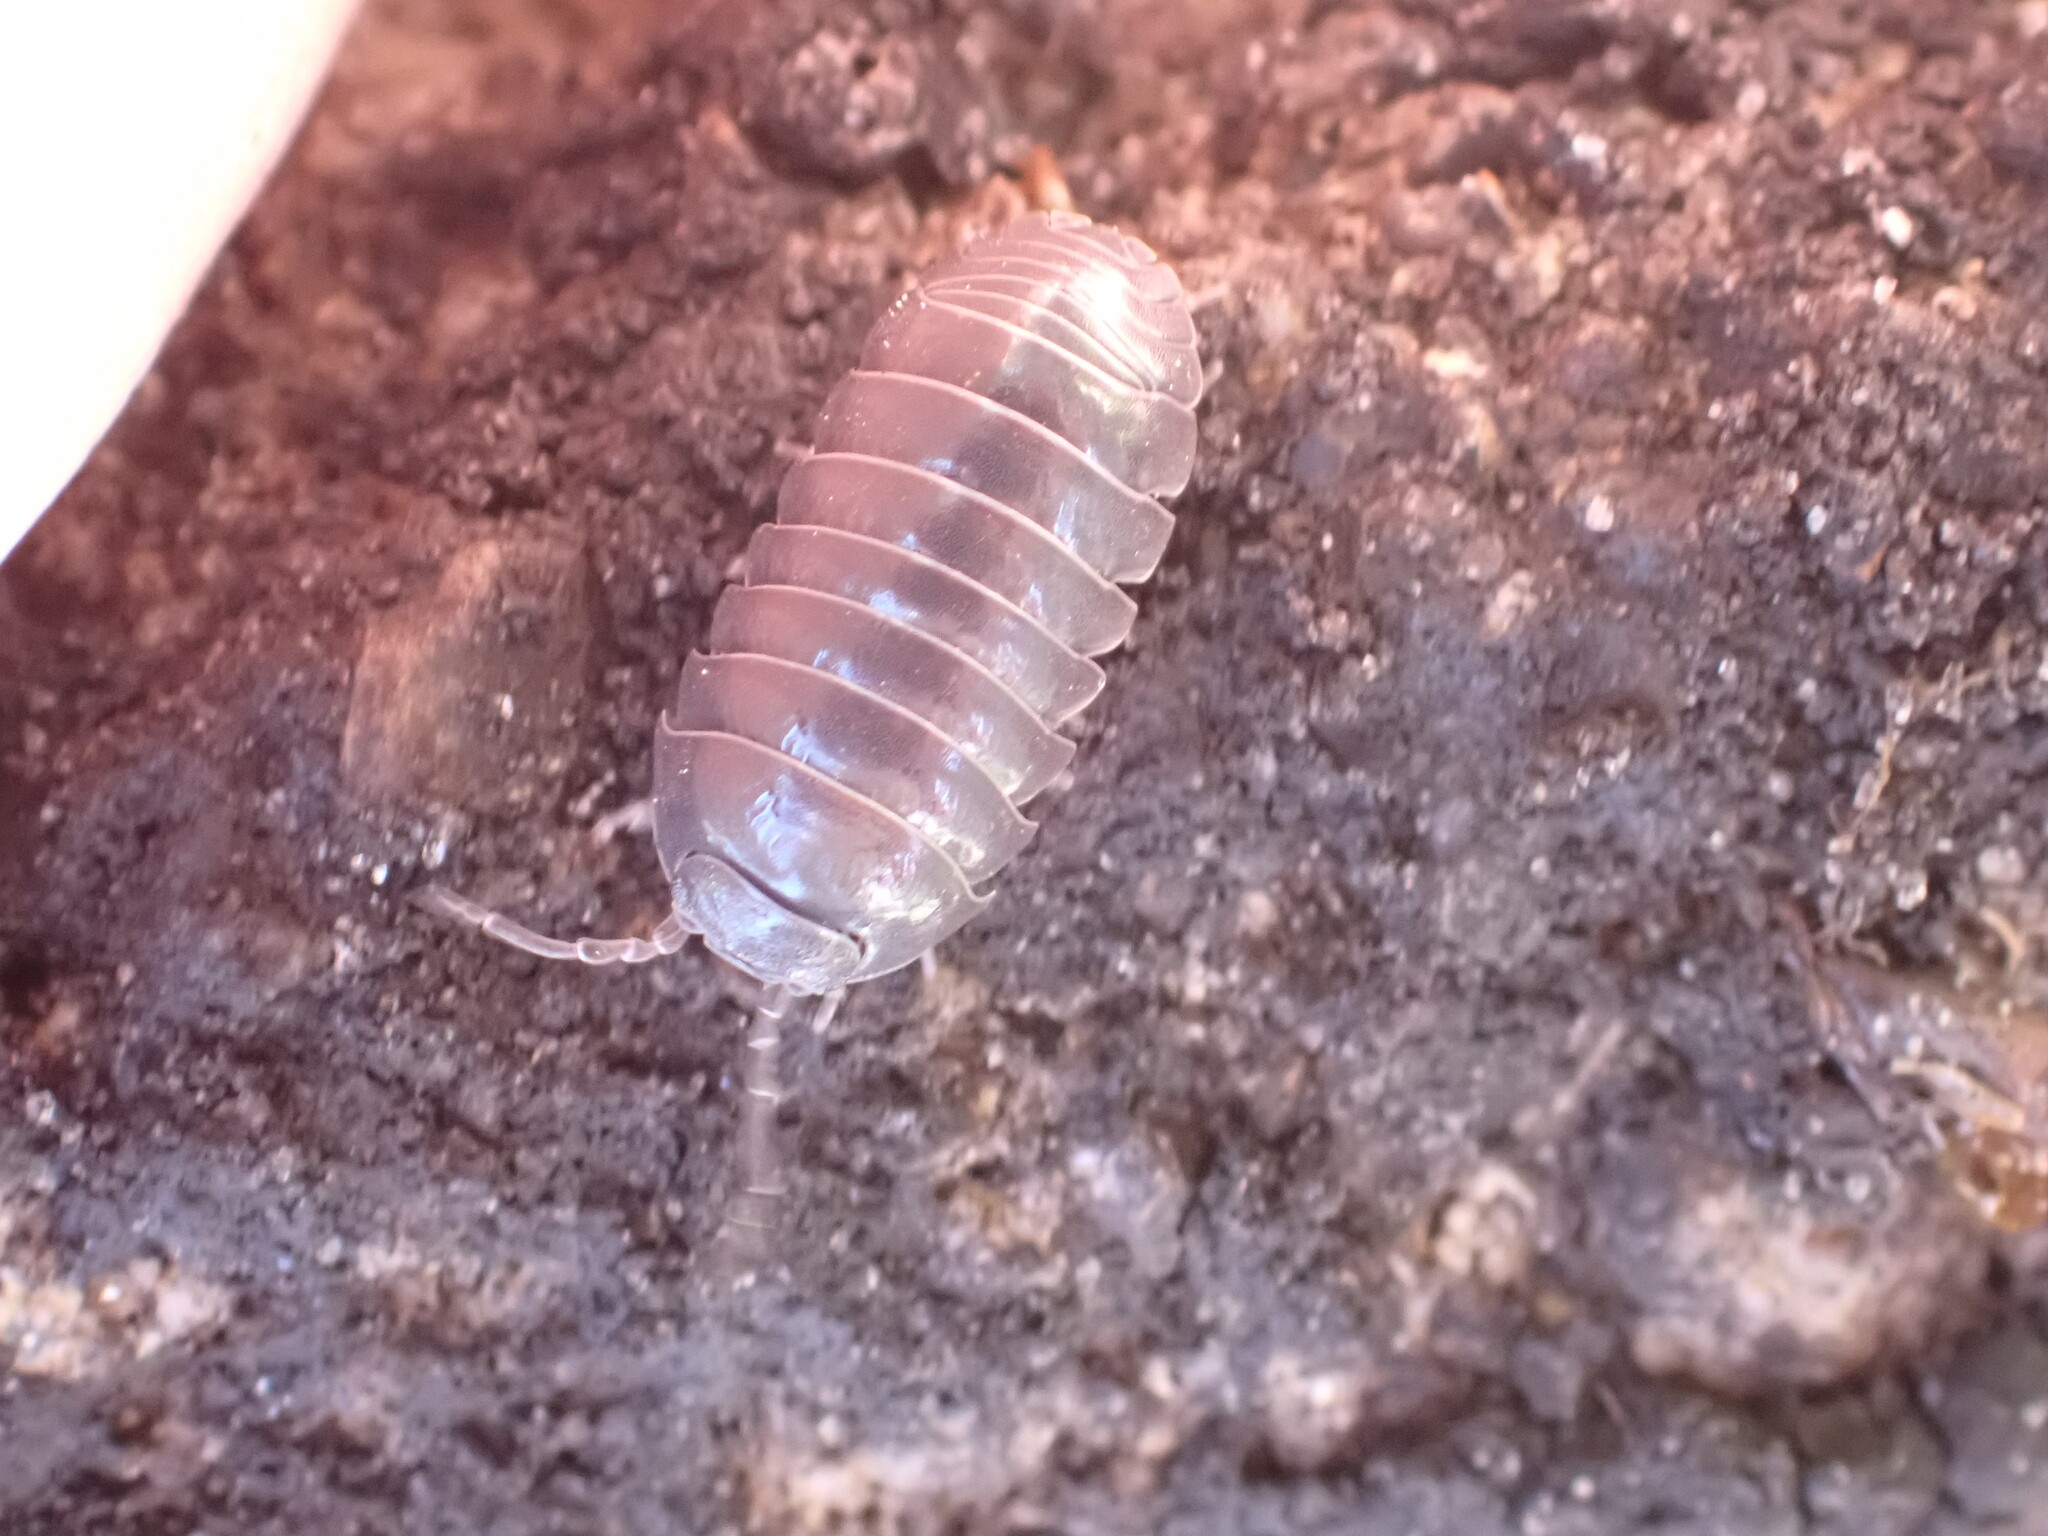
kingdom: Animalia
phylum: Arthropoda
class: Malacostraca
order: Isopoda
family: Armadillidiidae
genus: Armadillidium
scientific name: Armadillidium vulgare
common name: Common pill woodlouse
